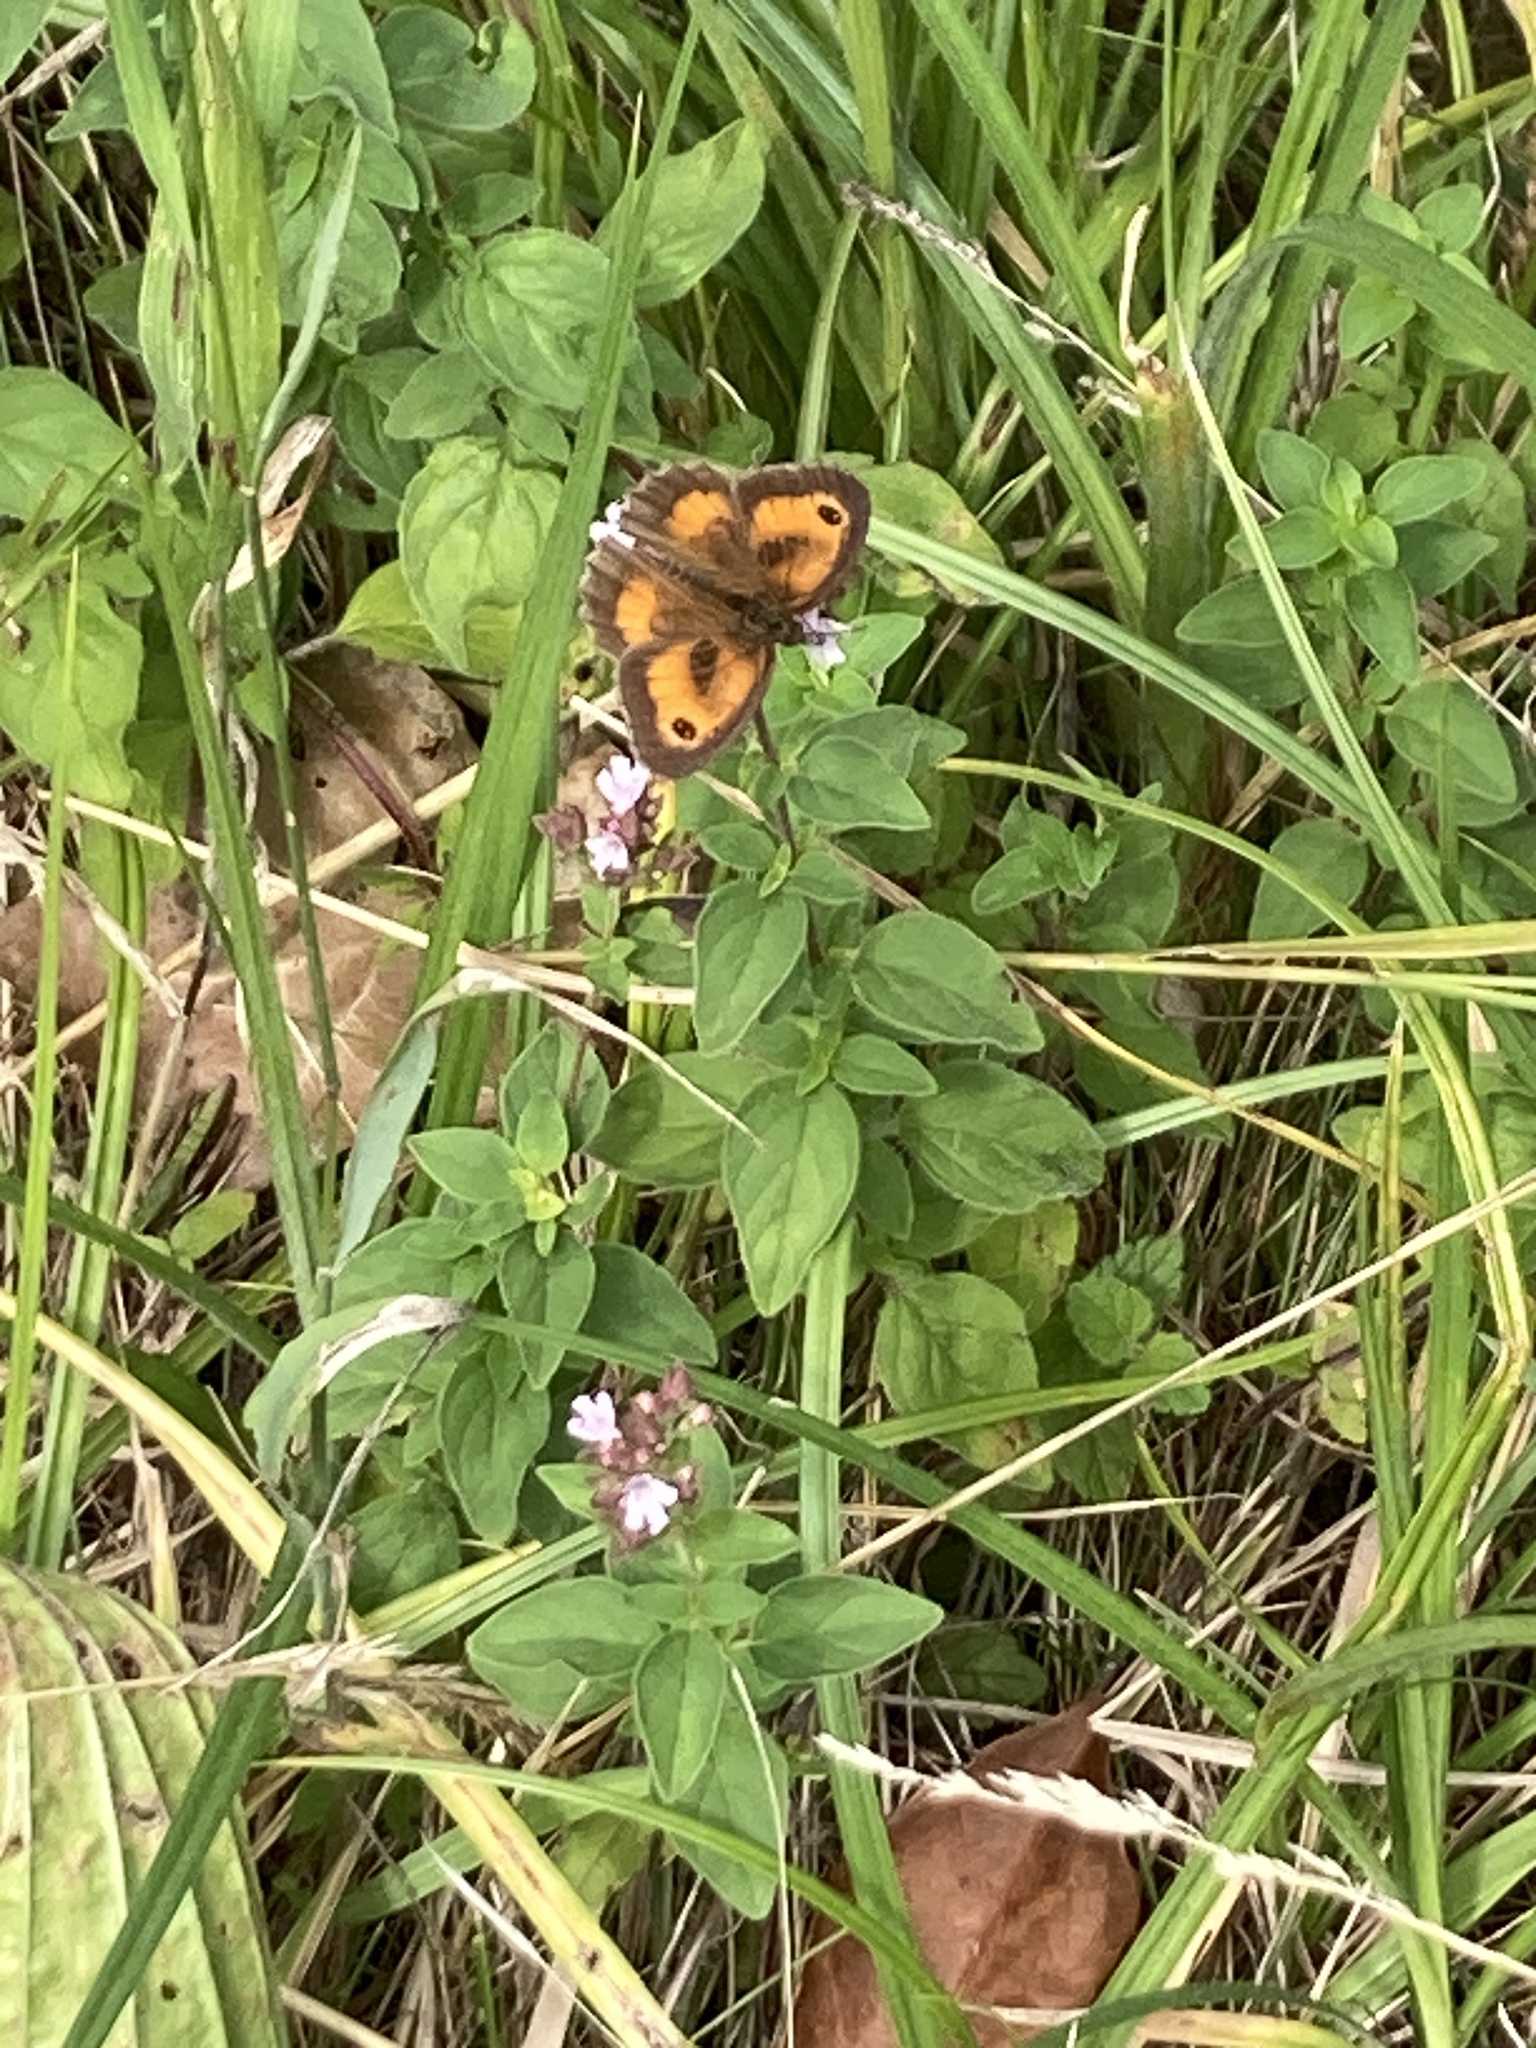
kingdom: Animalia
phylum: Arthropoda
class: Insecta
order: Lepidoptera
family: Nymphalidae
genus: Pyronia
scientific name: Pyronia tithonus
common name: Gatekeeper
